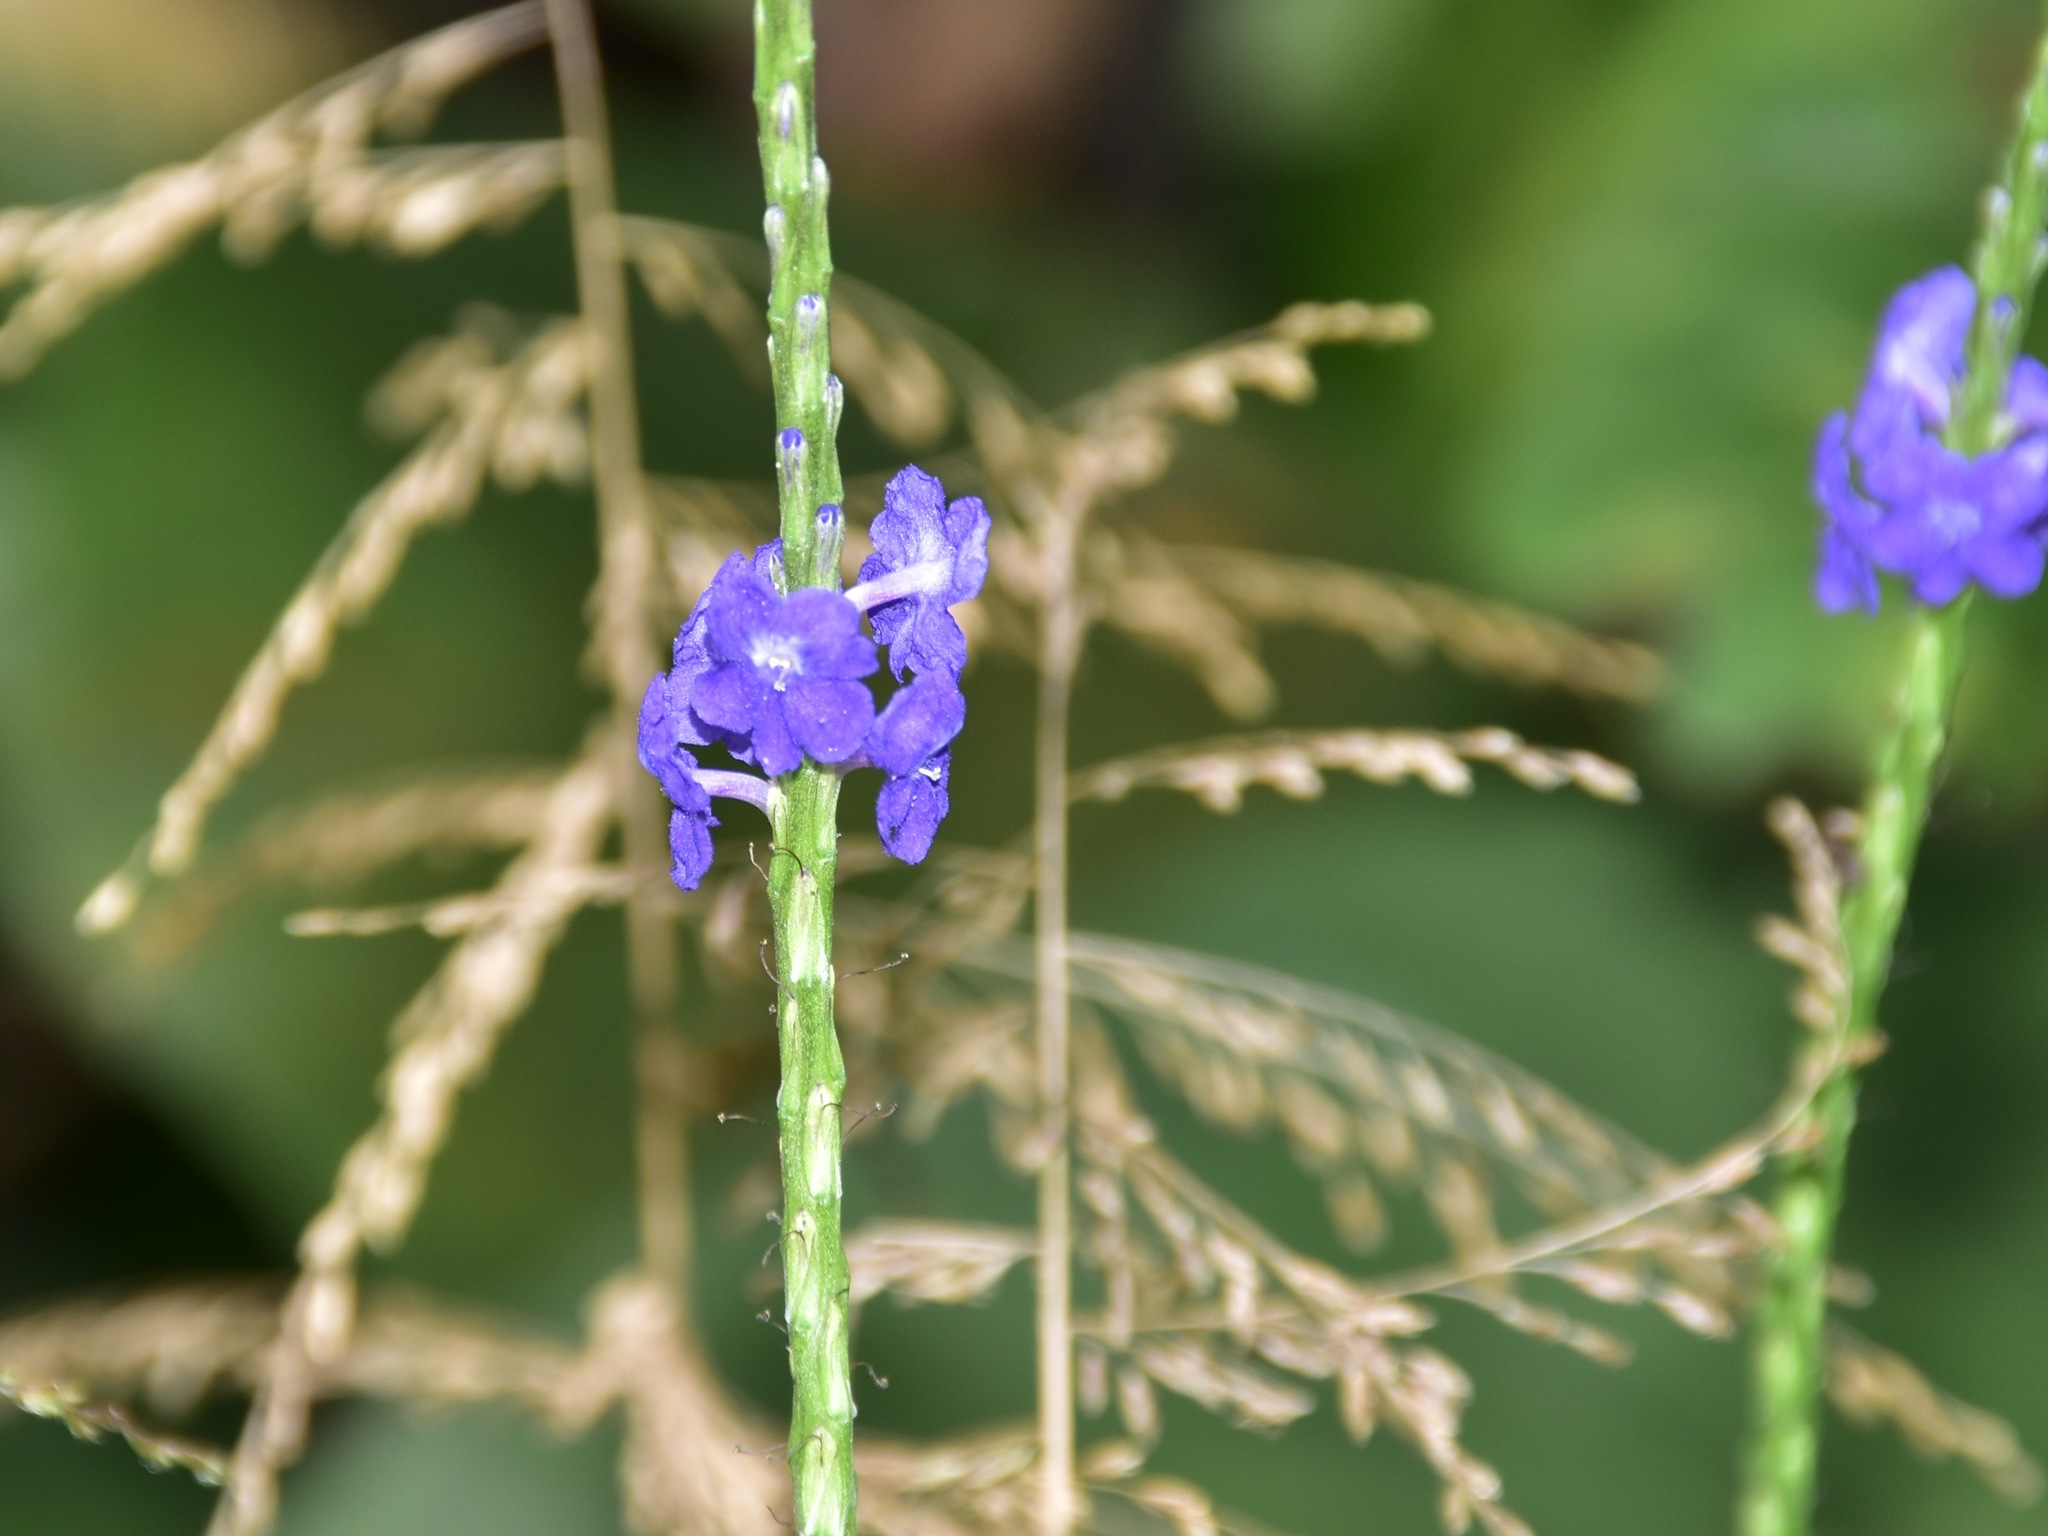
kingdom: Plantae
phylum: Tracheophyta
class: Magnoliopsida
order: Lamiales
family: Verbenaceae
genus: Stachytarpheta
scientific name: Stachytarpheta jamaicensis
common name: Light-blue snakeweed
